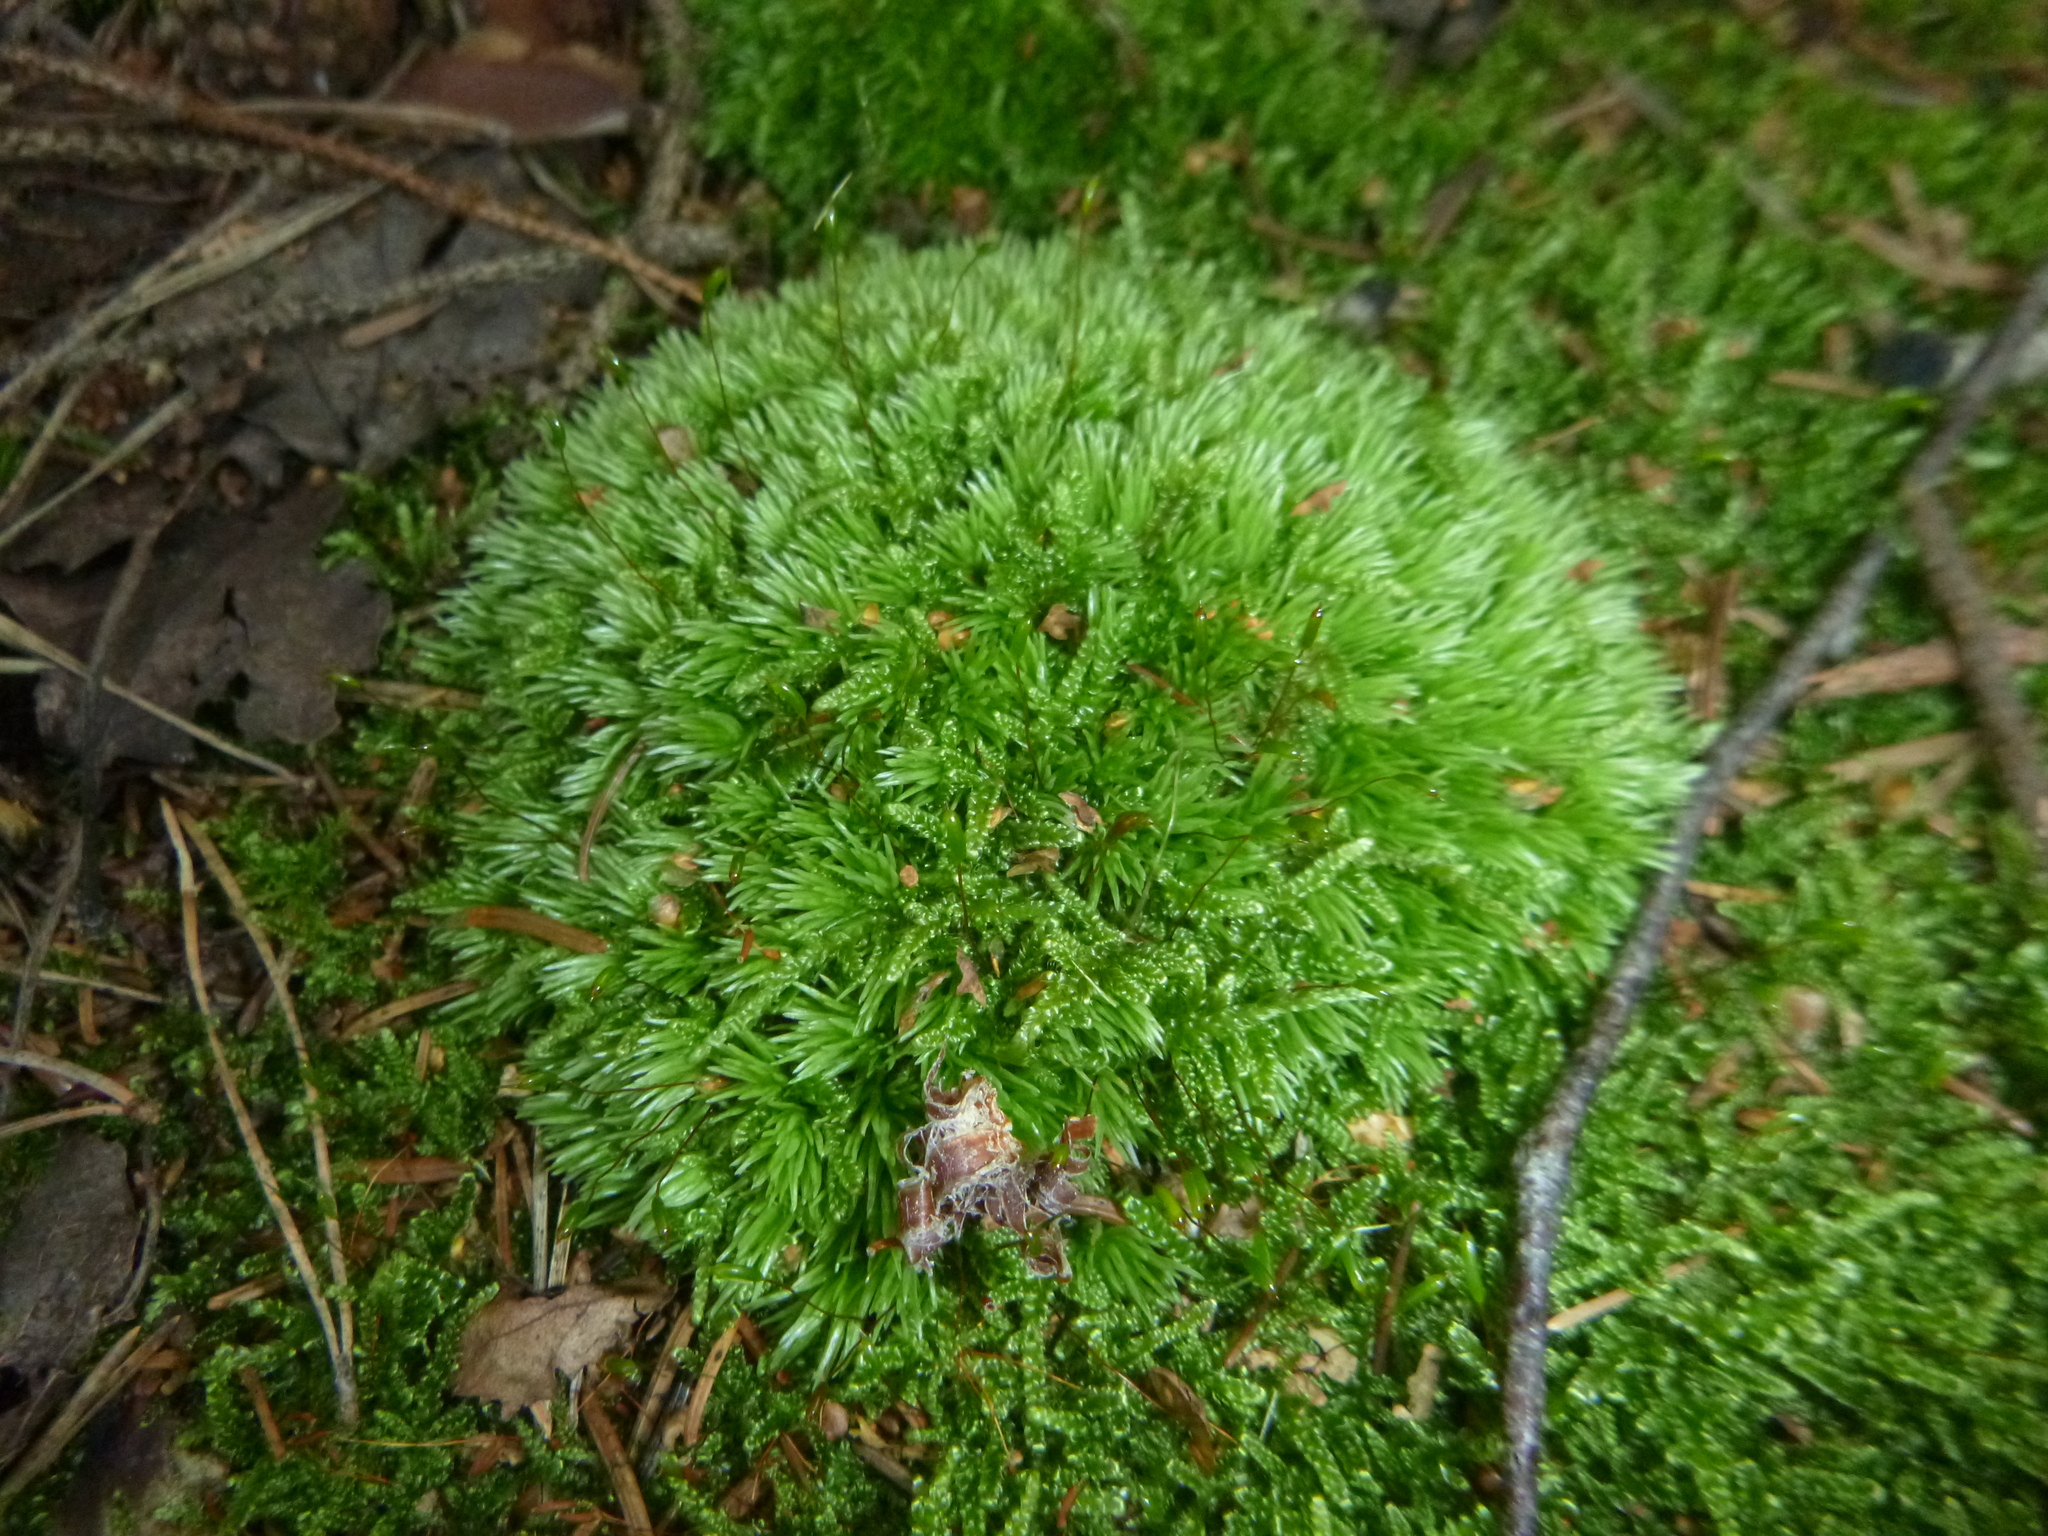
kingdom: Plantae
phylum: Bryophyta
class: Bryopsida
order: Dicranales
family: Leucobryaceae
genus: Leucobryum
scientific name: Leucobryum glaucum
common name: Large white-moss
